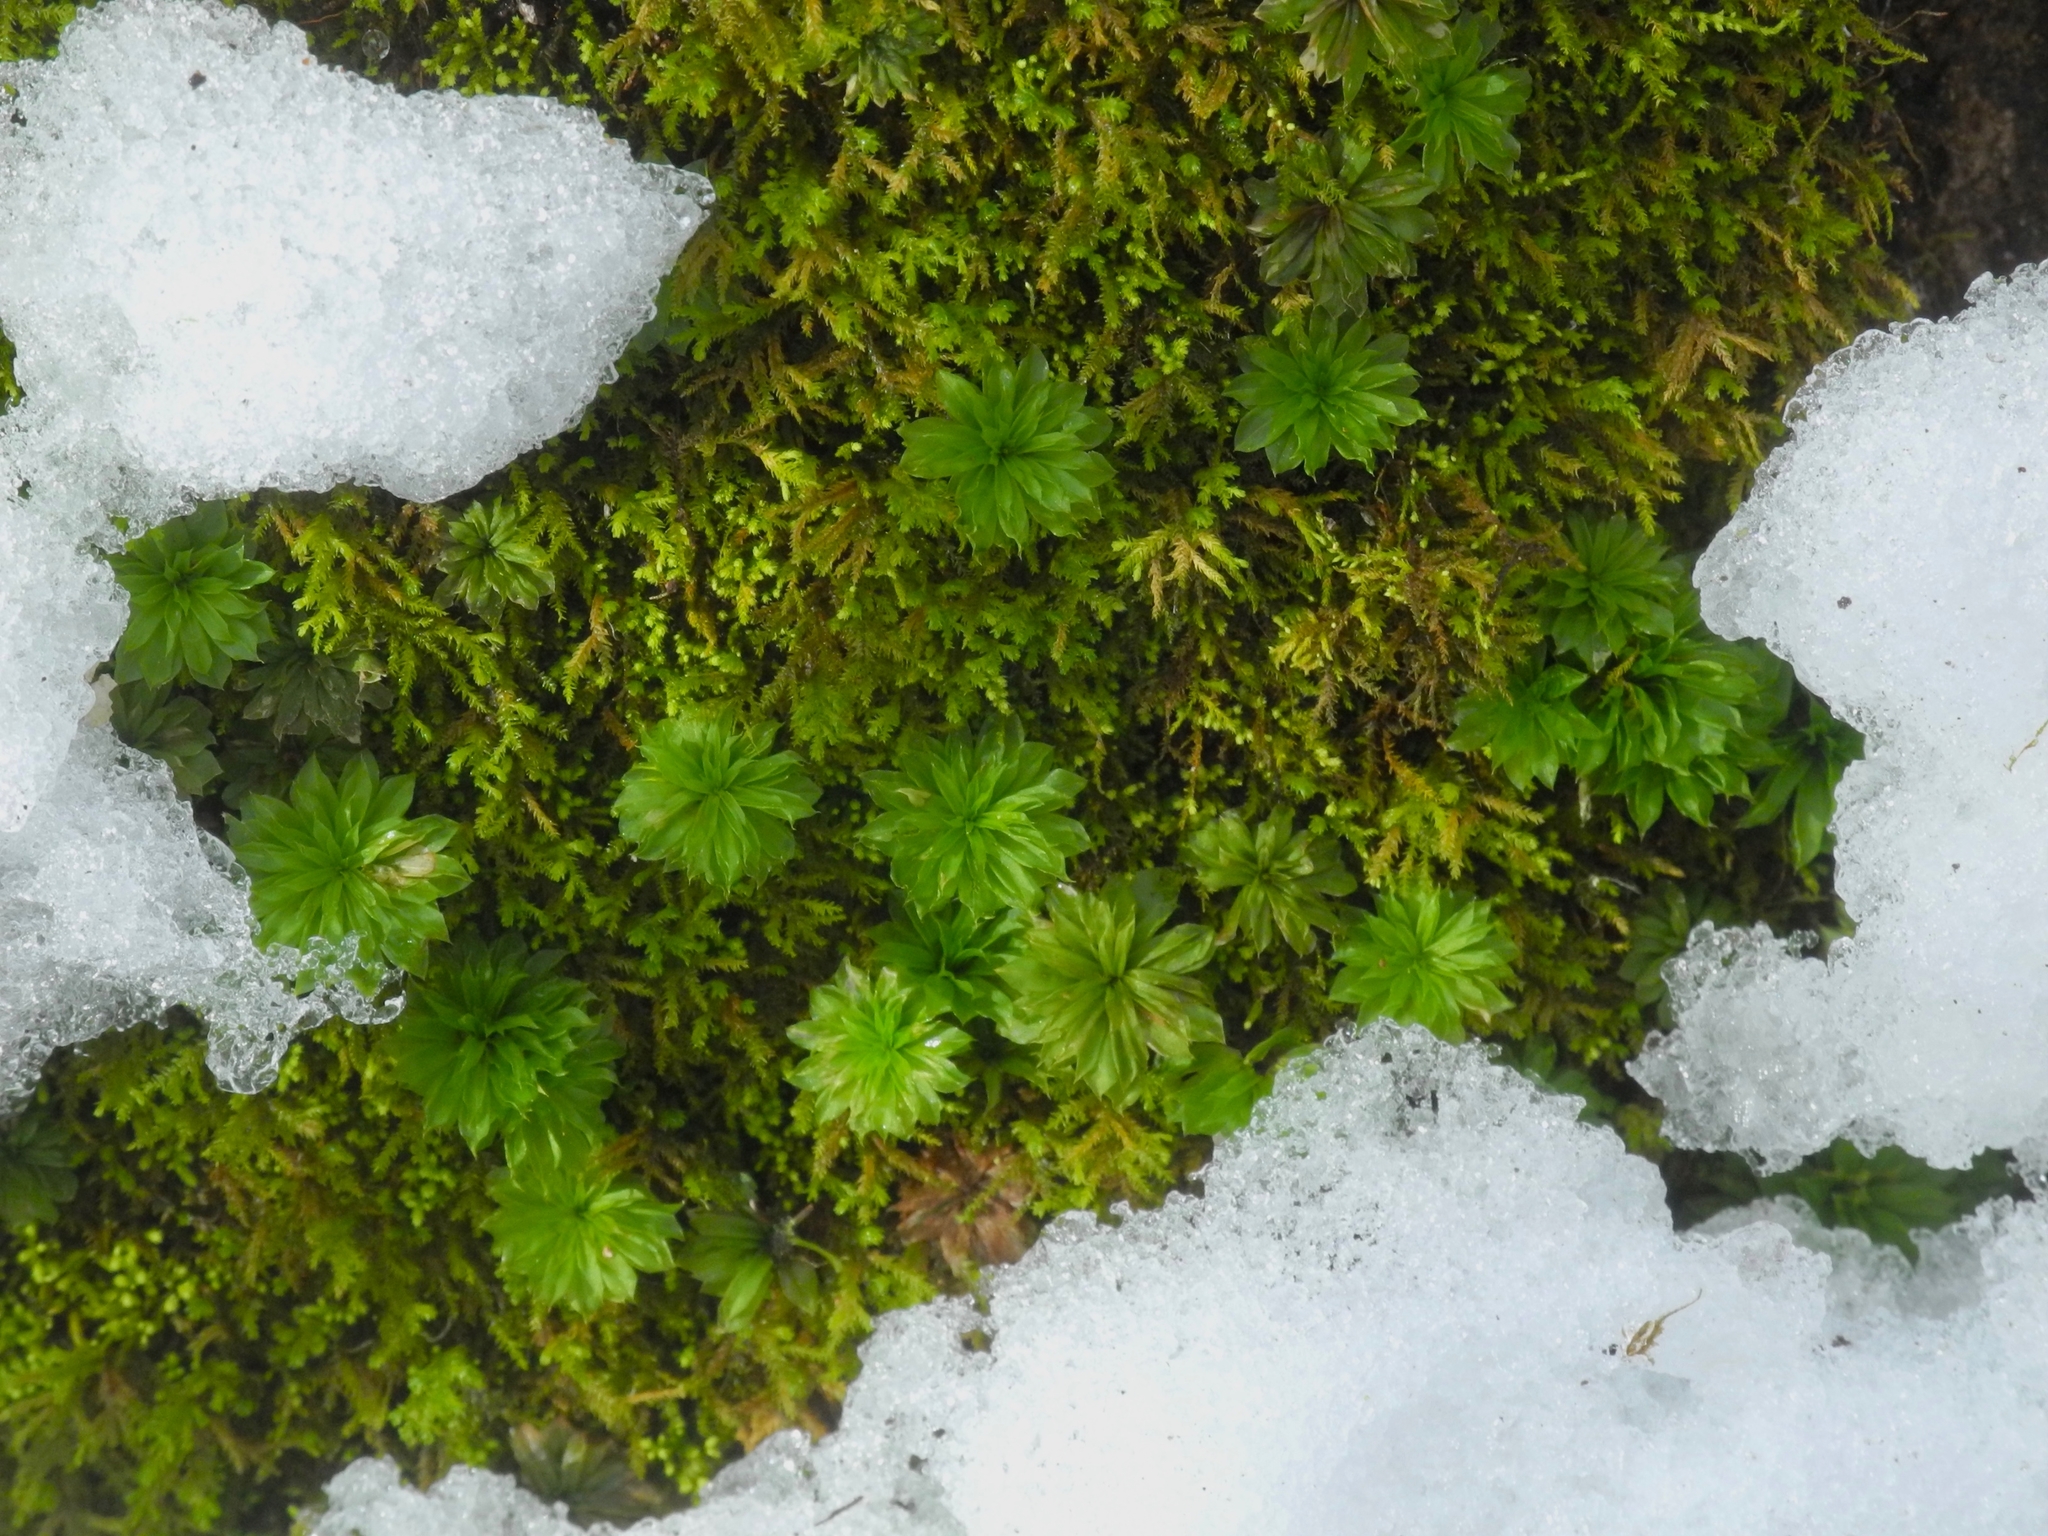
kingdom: Plantae
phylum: Bryophyta
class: Bryopsida
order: Bryales
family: Bryaceae
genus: Rhodobryum
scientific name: Rhodobryum ontariense
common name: Ontario rhodobryum moss
